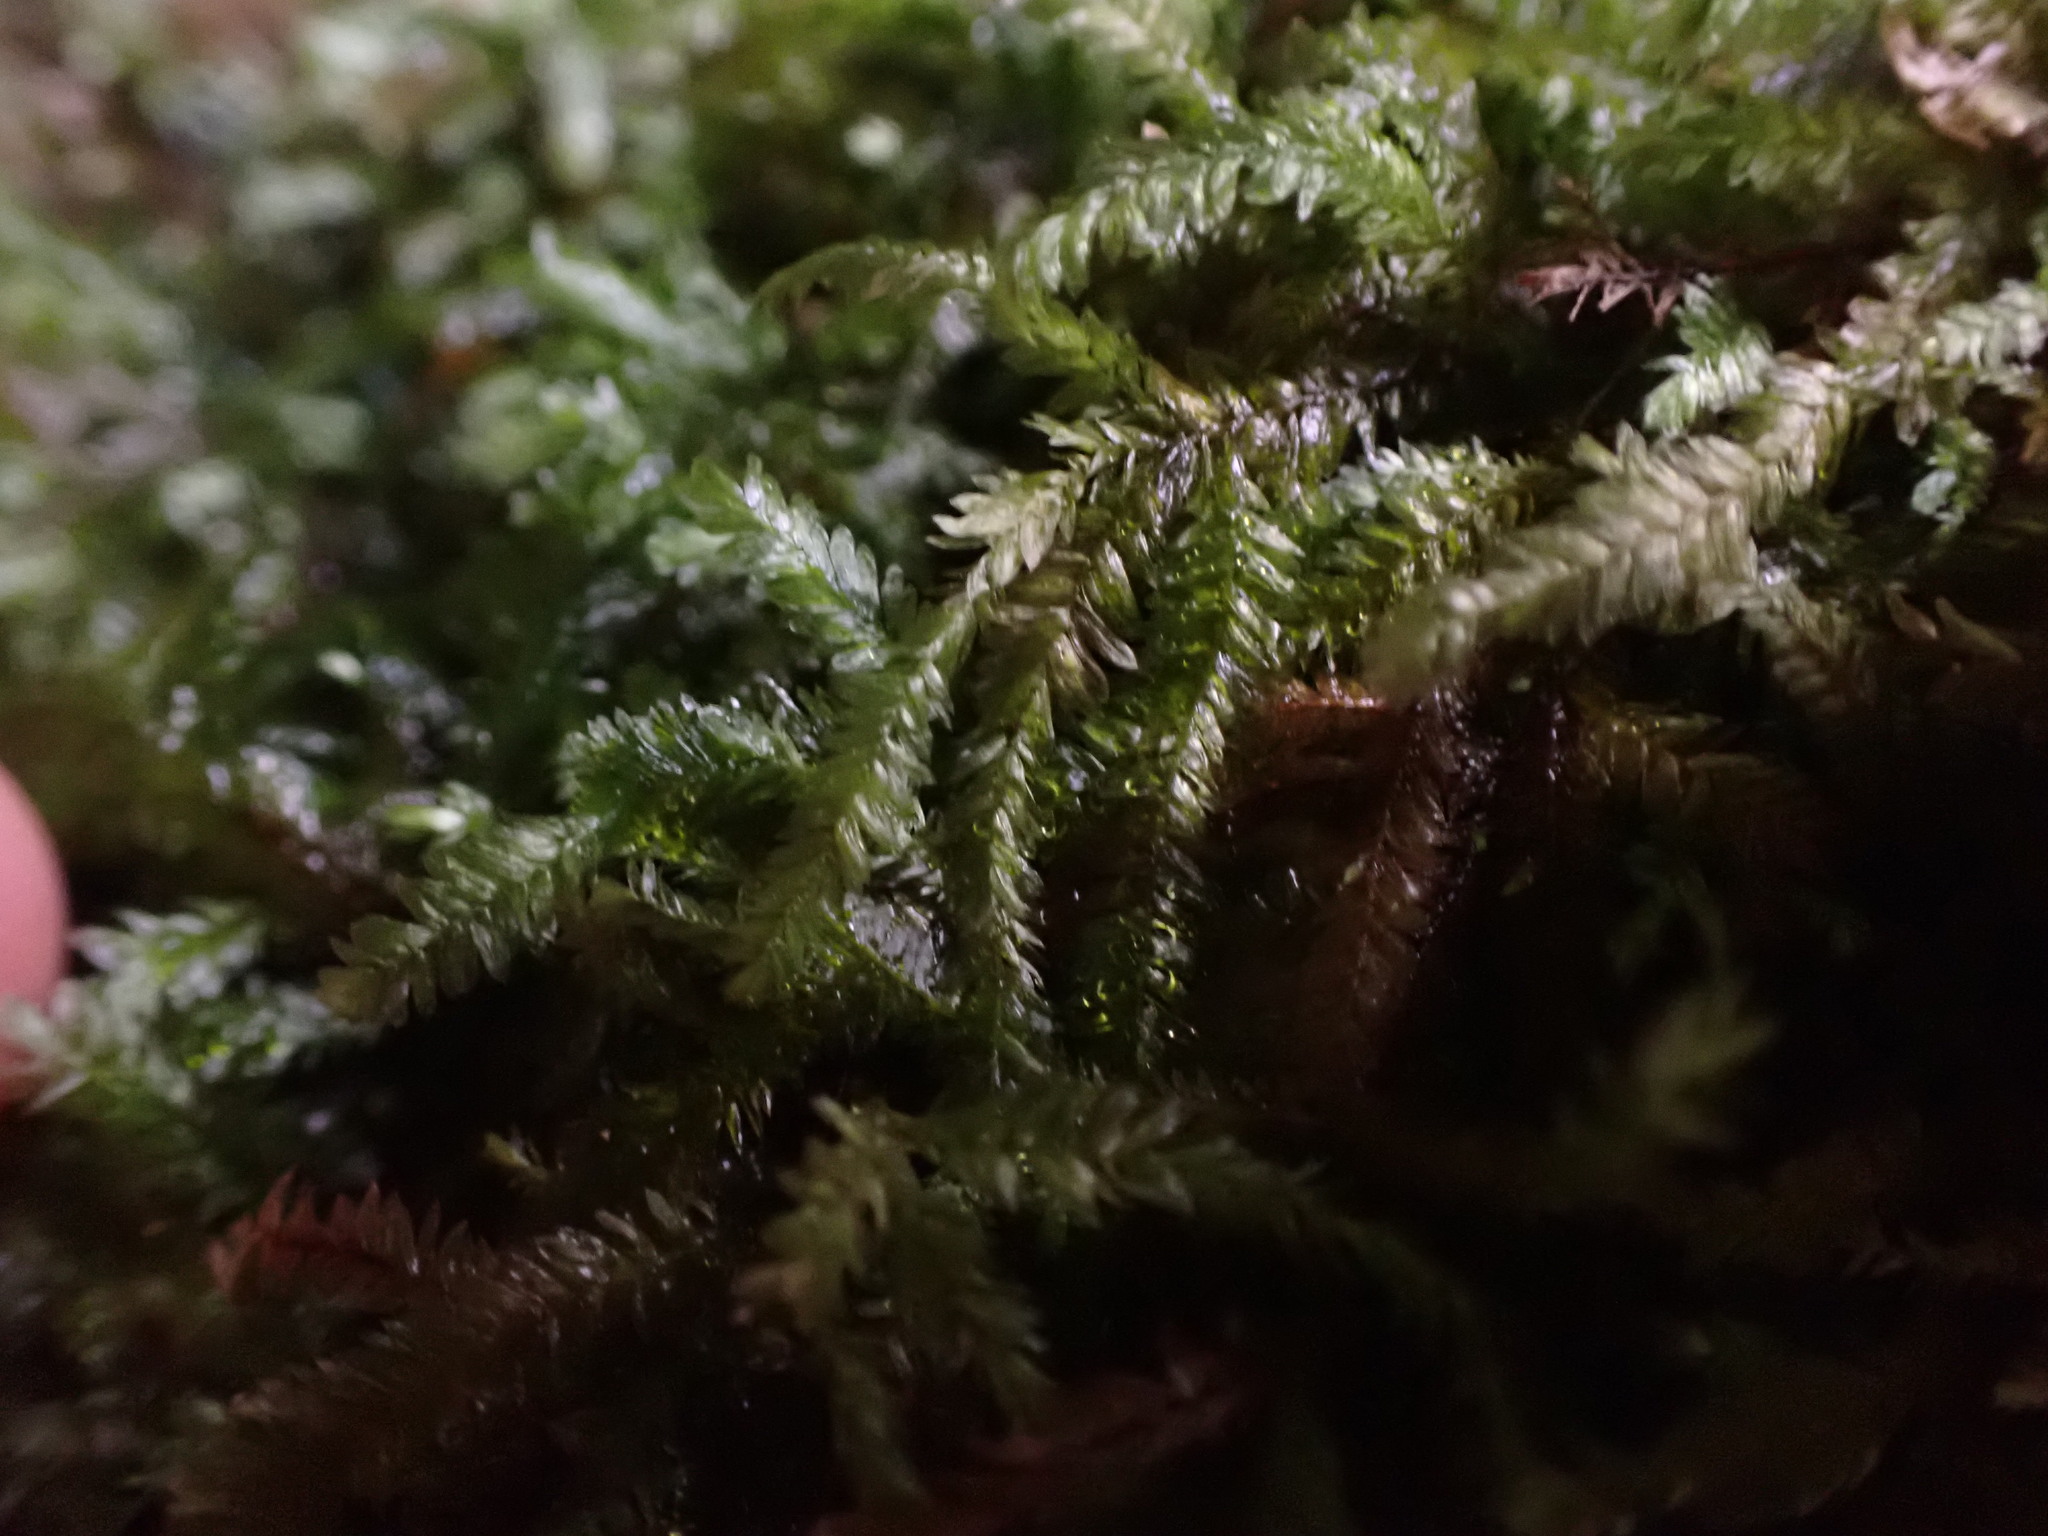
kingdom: Plantae
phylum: Bryophyta
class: Bryopsida
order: Hypnales
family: Neckeraceae
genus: Dannorrisia
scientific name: Dannorrisia bigelovii
